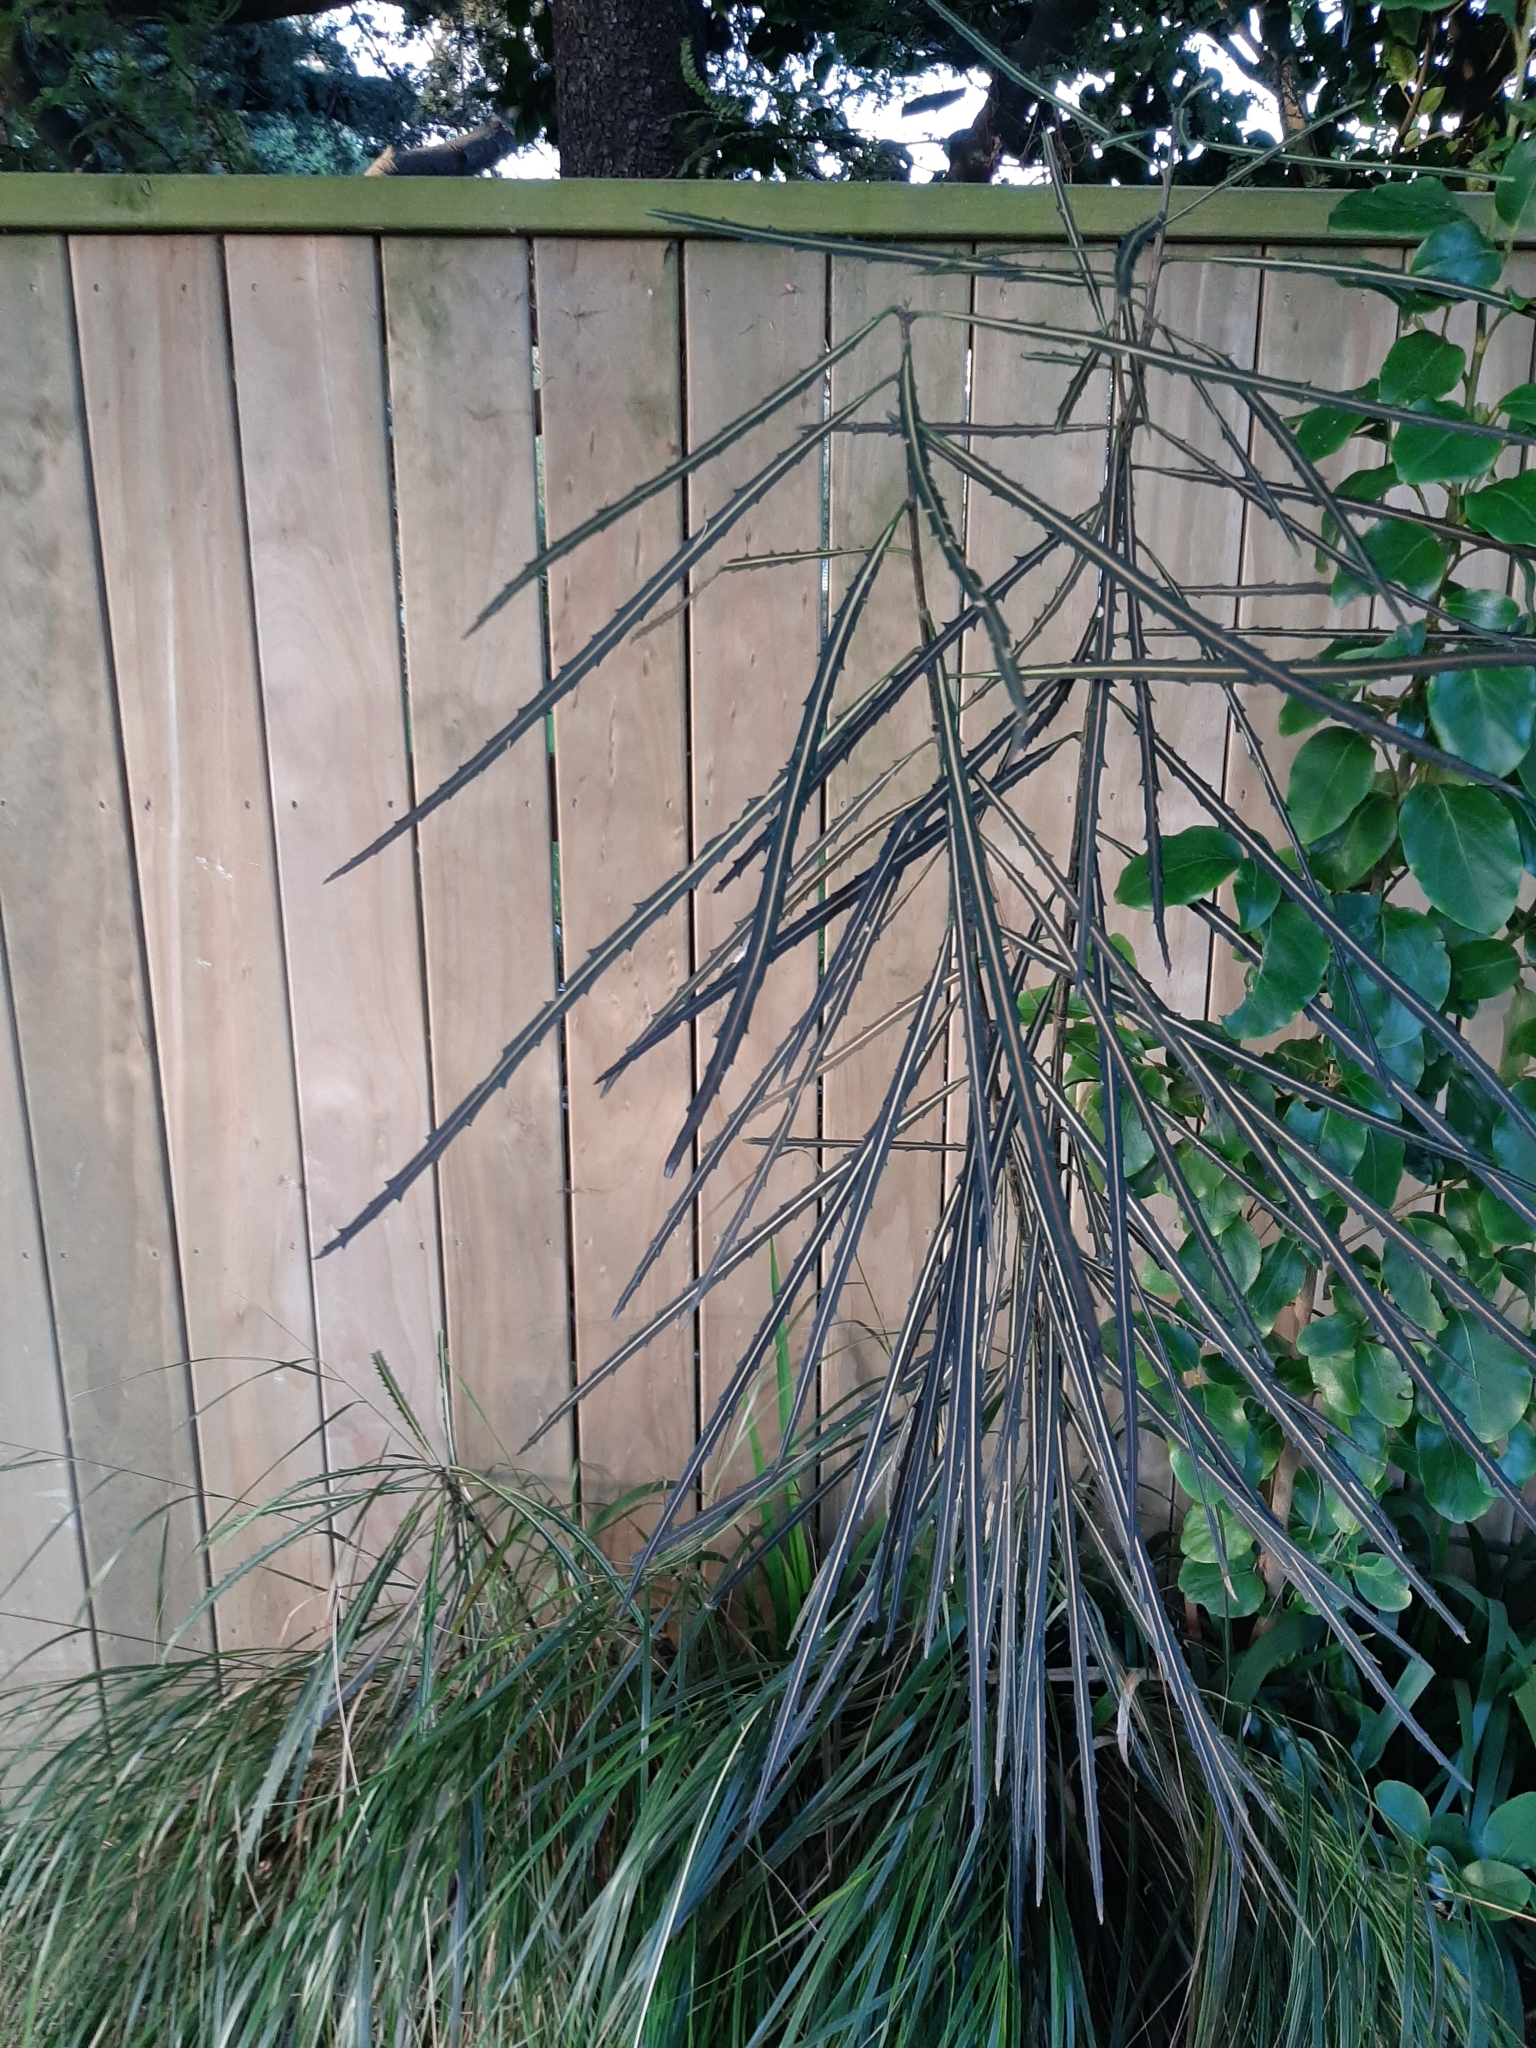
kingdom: Plantae
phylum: Tracheophyta
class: Magnoliopsida
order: Apiales
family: Araliaceae
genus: Pseudopanax
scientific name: Pseudopanax crassifolius
